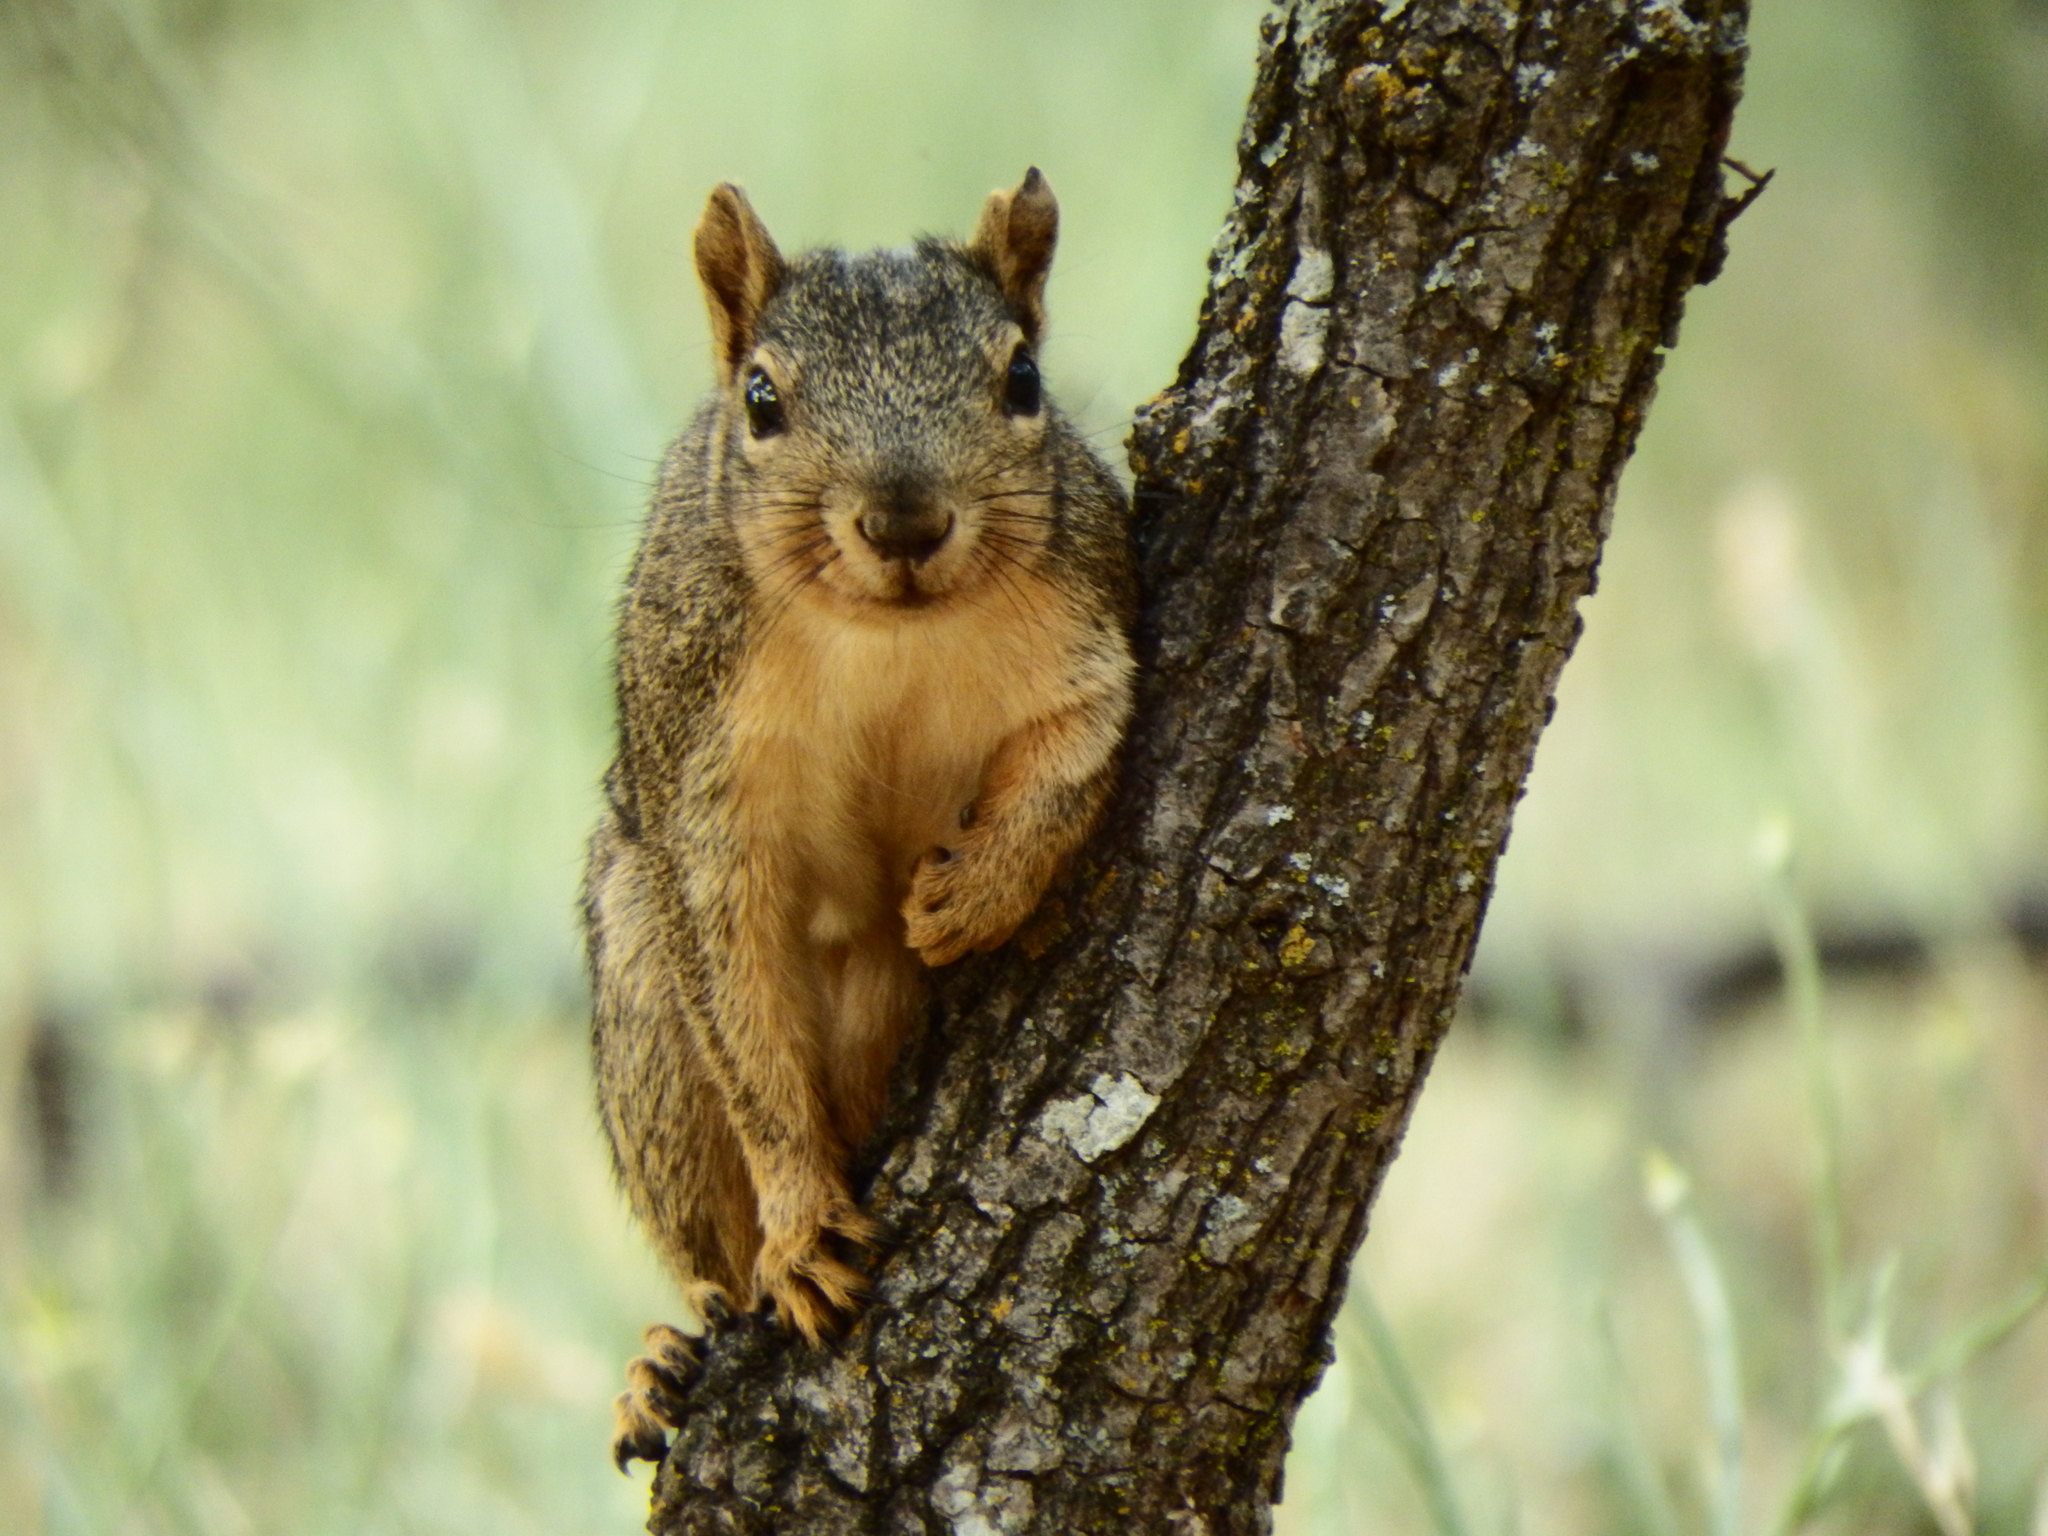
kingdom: Animalia
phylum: Chordata
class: Mammalia
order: Rodentia
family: Sciuridae
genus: Sciurus
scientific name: Sciurus niger
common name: Fox squirrel
